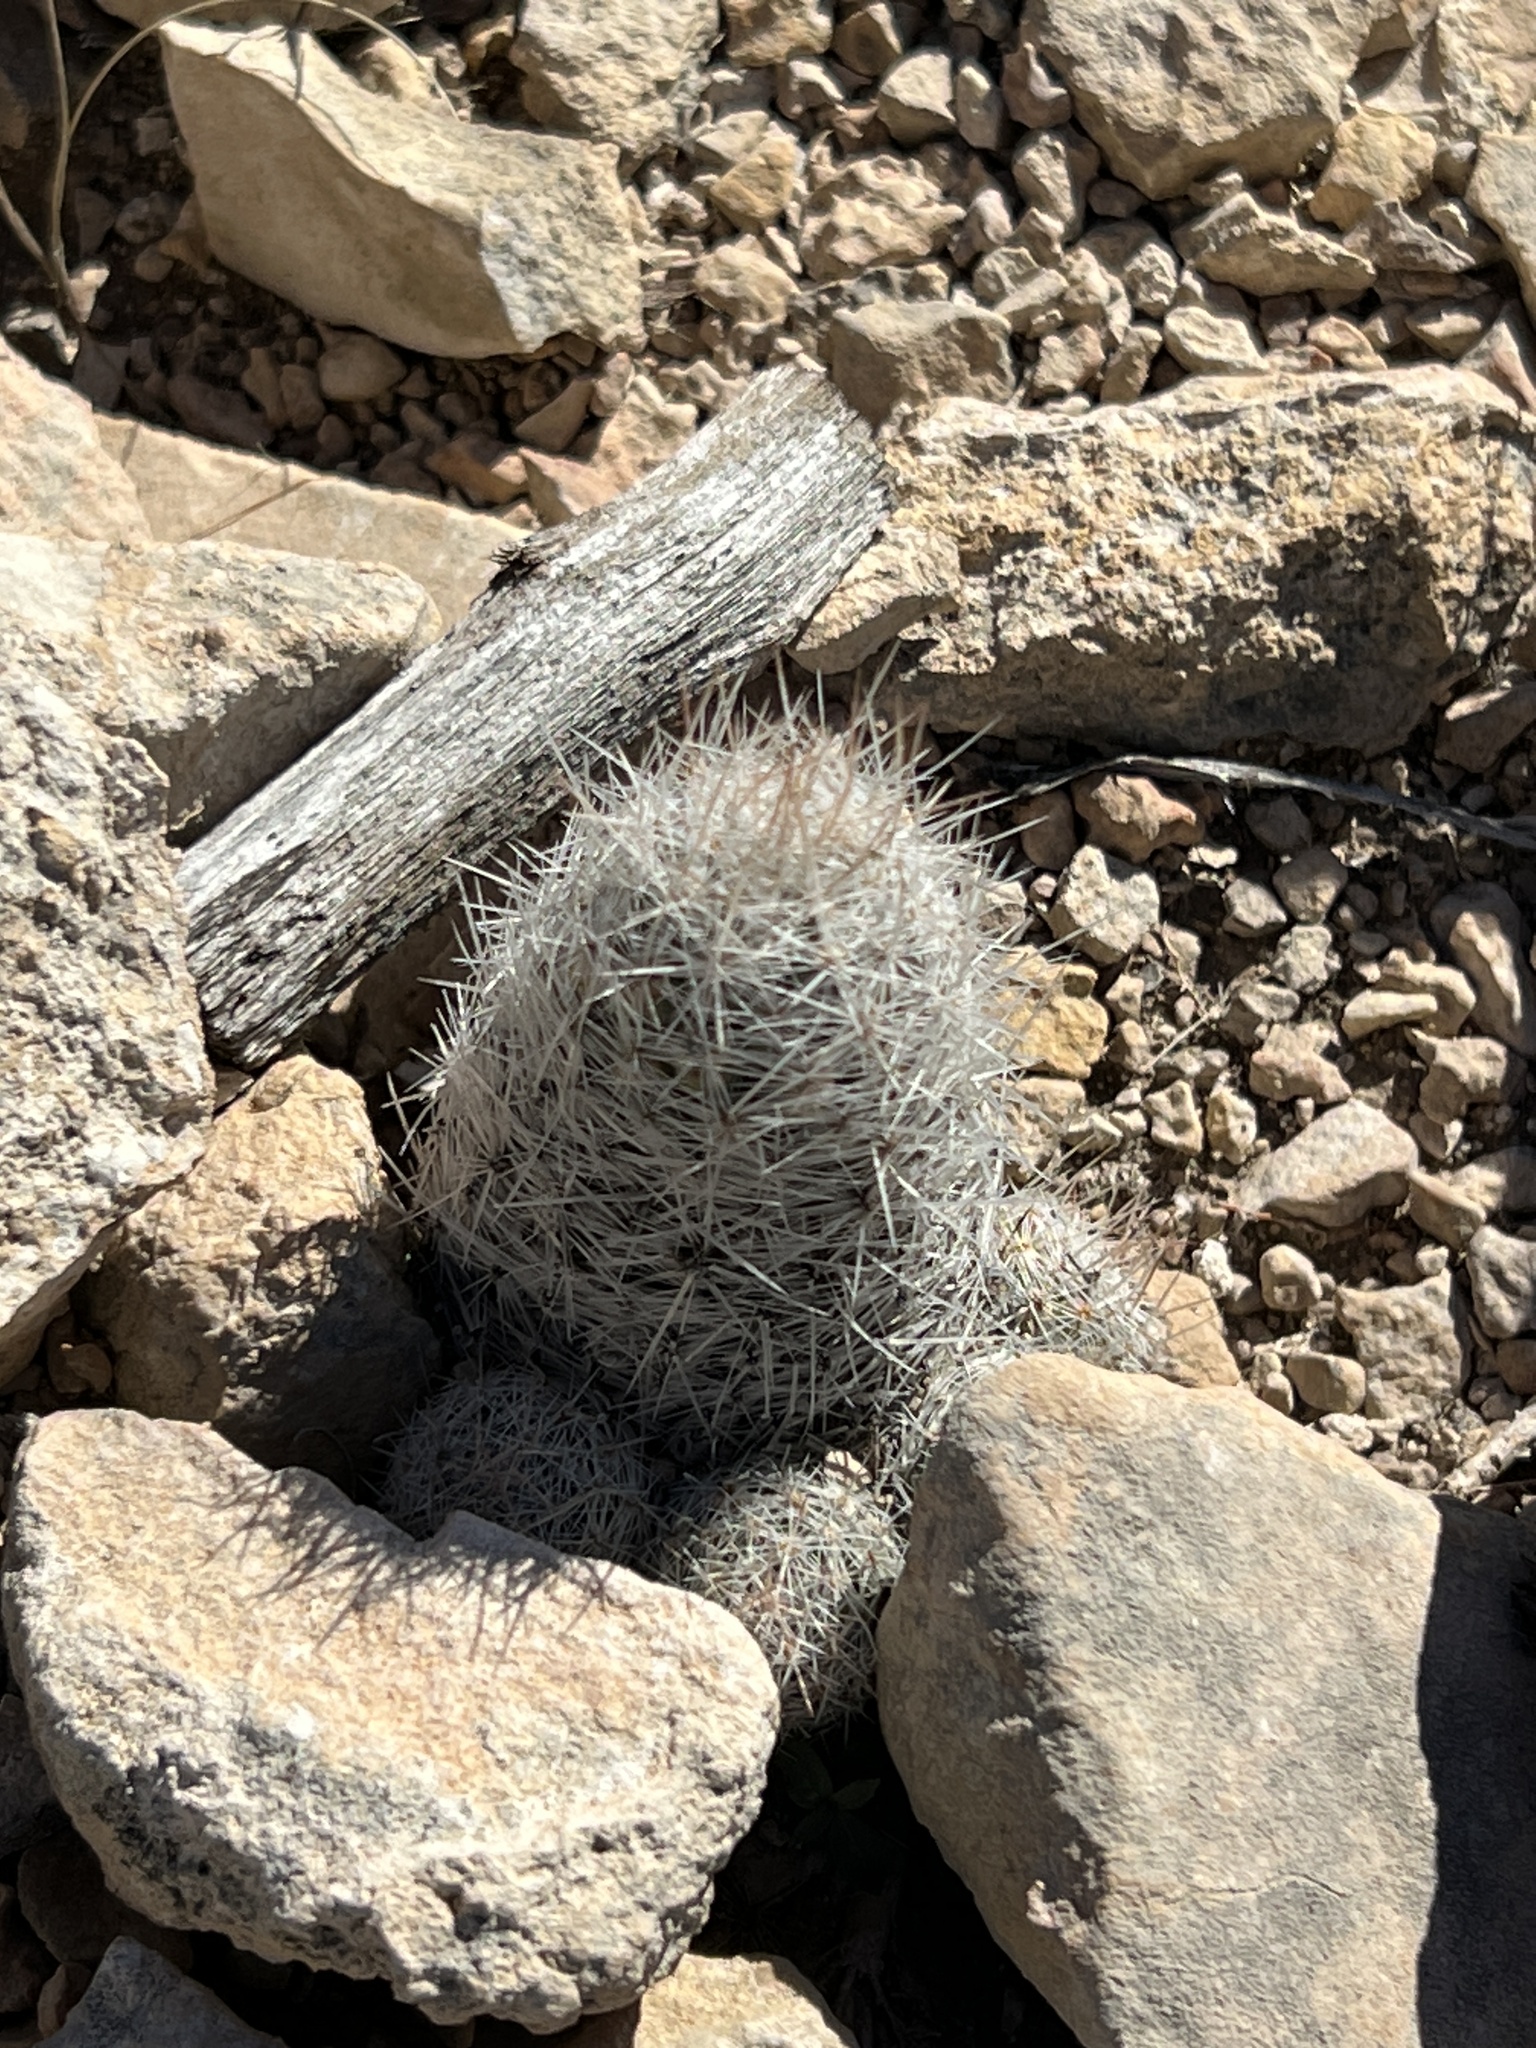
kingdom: Plantae
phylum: Tracheophyta
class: Magnoliopsida
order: Caryophyllales
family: Cactaceae
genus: Pelecyphora
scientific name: Pelecyphora tuberculosa
